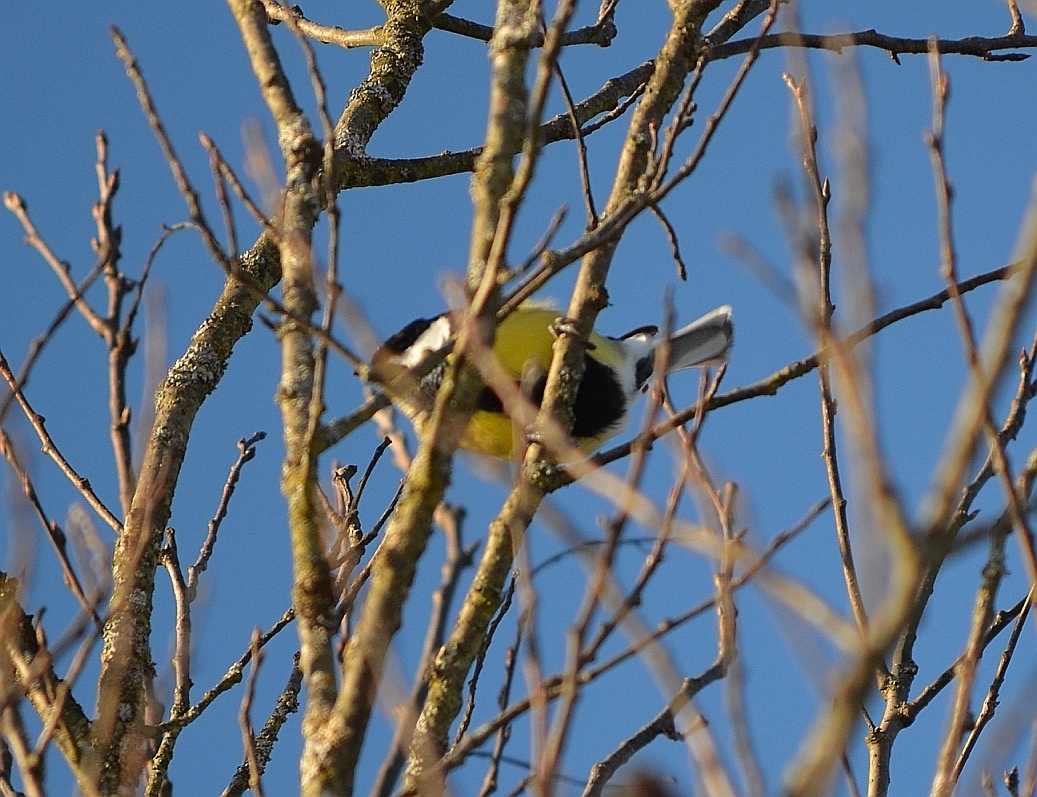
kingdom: Animalia
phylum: Chordata
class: Aves
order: Passeriformes
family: Paridae
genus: Parus
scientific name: Parus major
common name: Great tit
